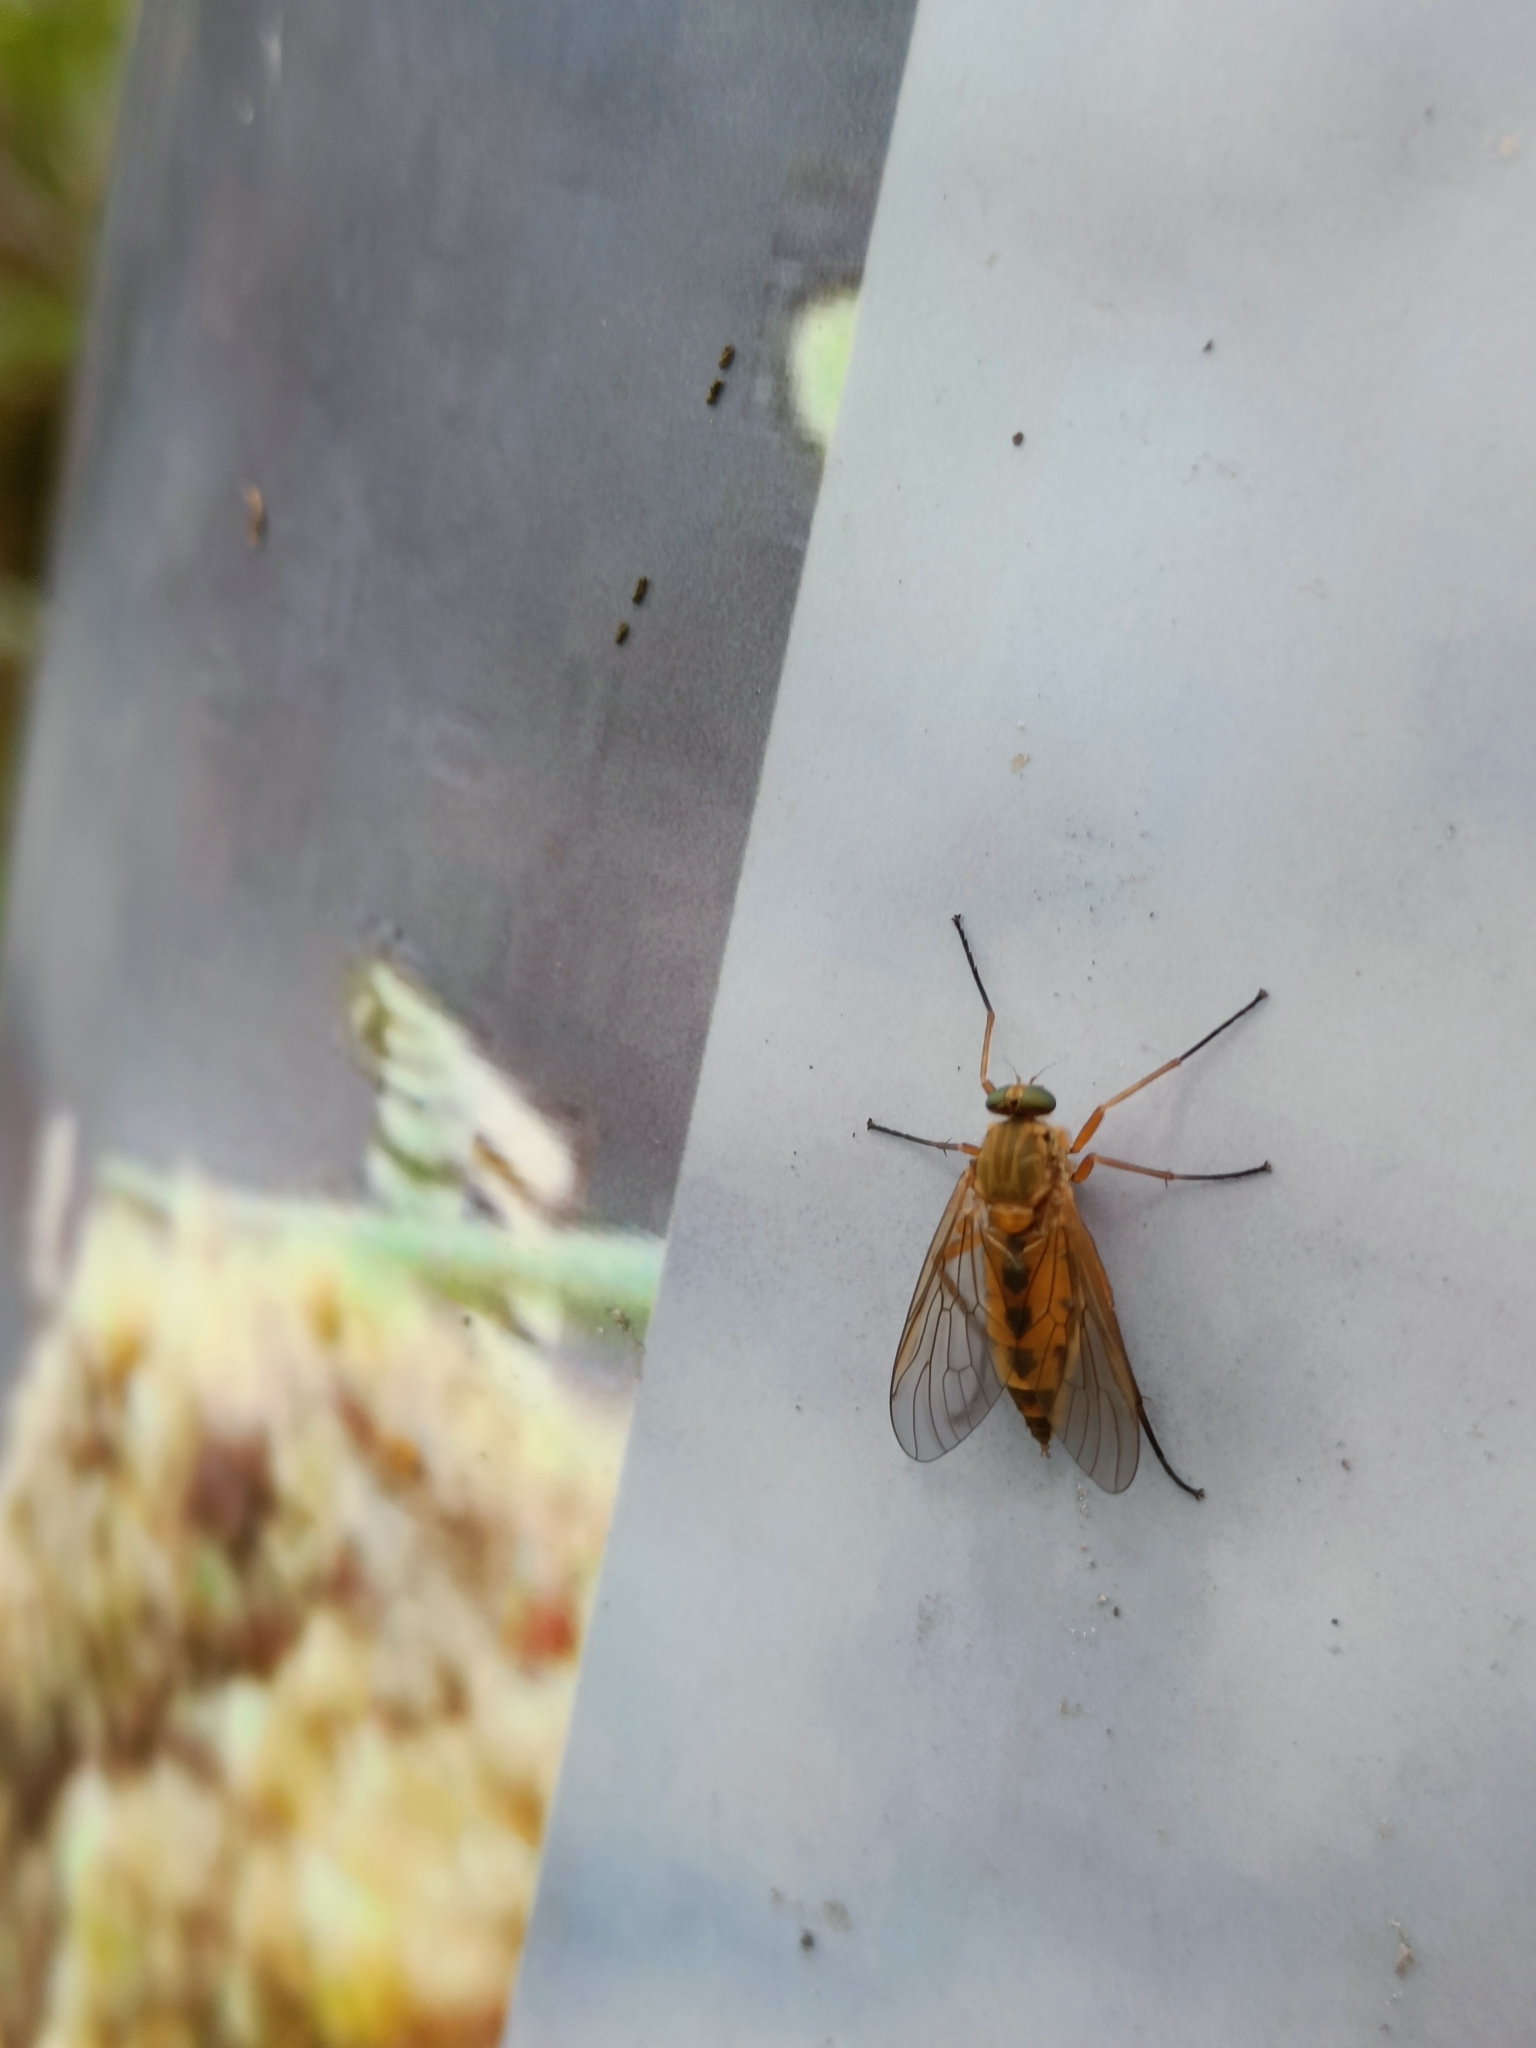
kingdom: Animalia
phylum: Arthropoda
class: Insecta
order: Diptera
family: Rhagionidae
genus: Rhagio
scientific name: Rhagio tringaria
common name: Marsh snipefly
